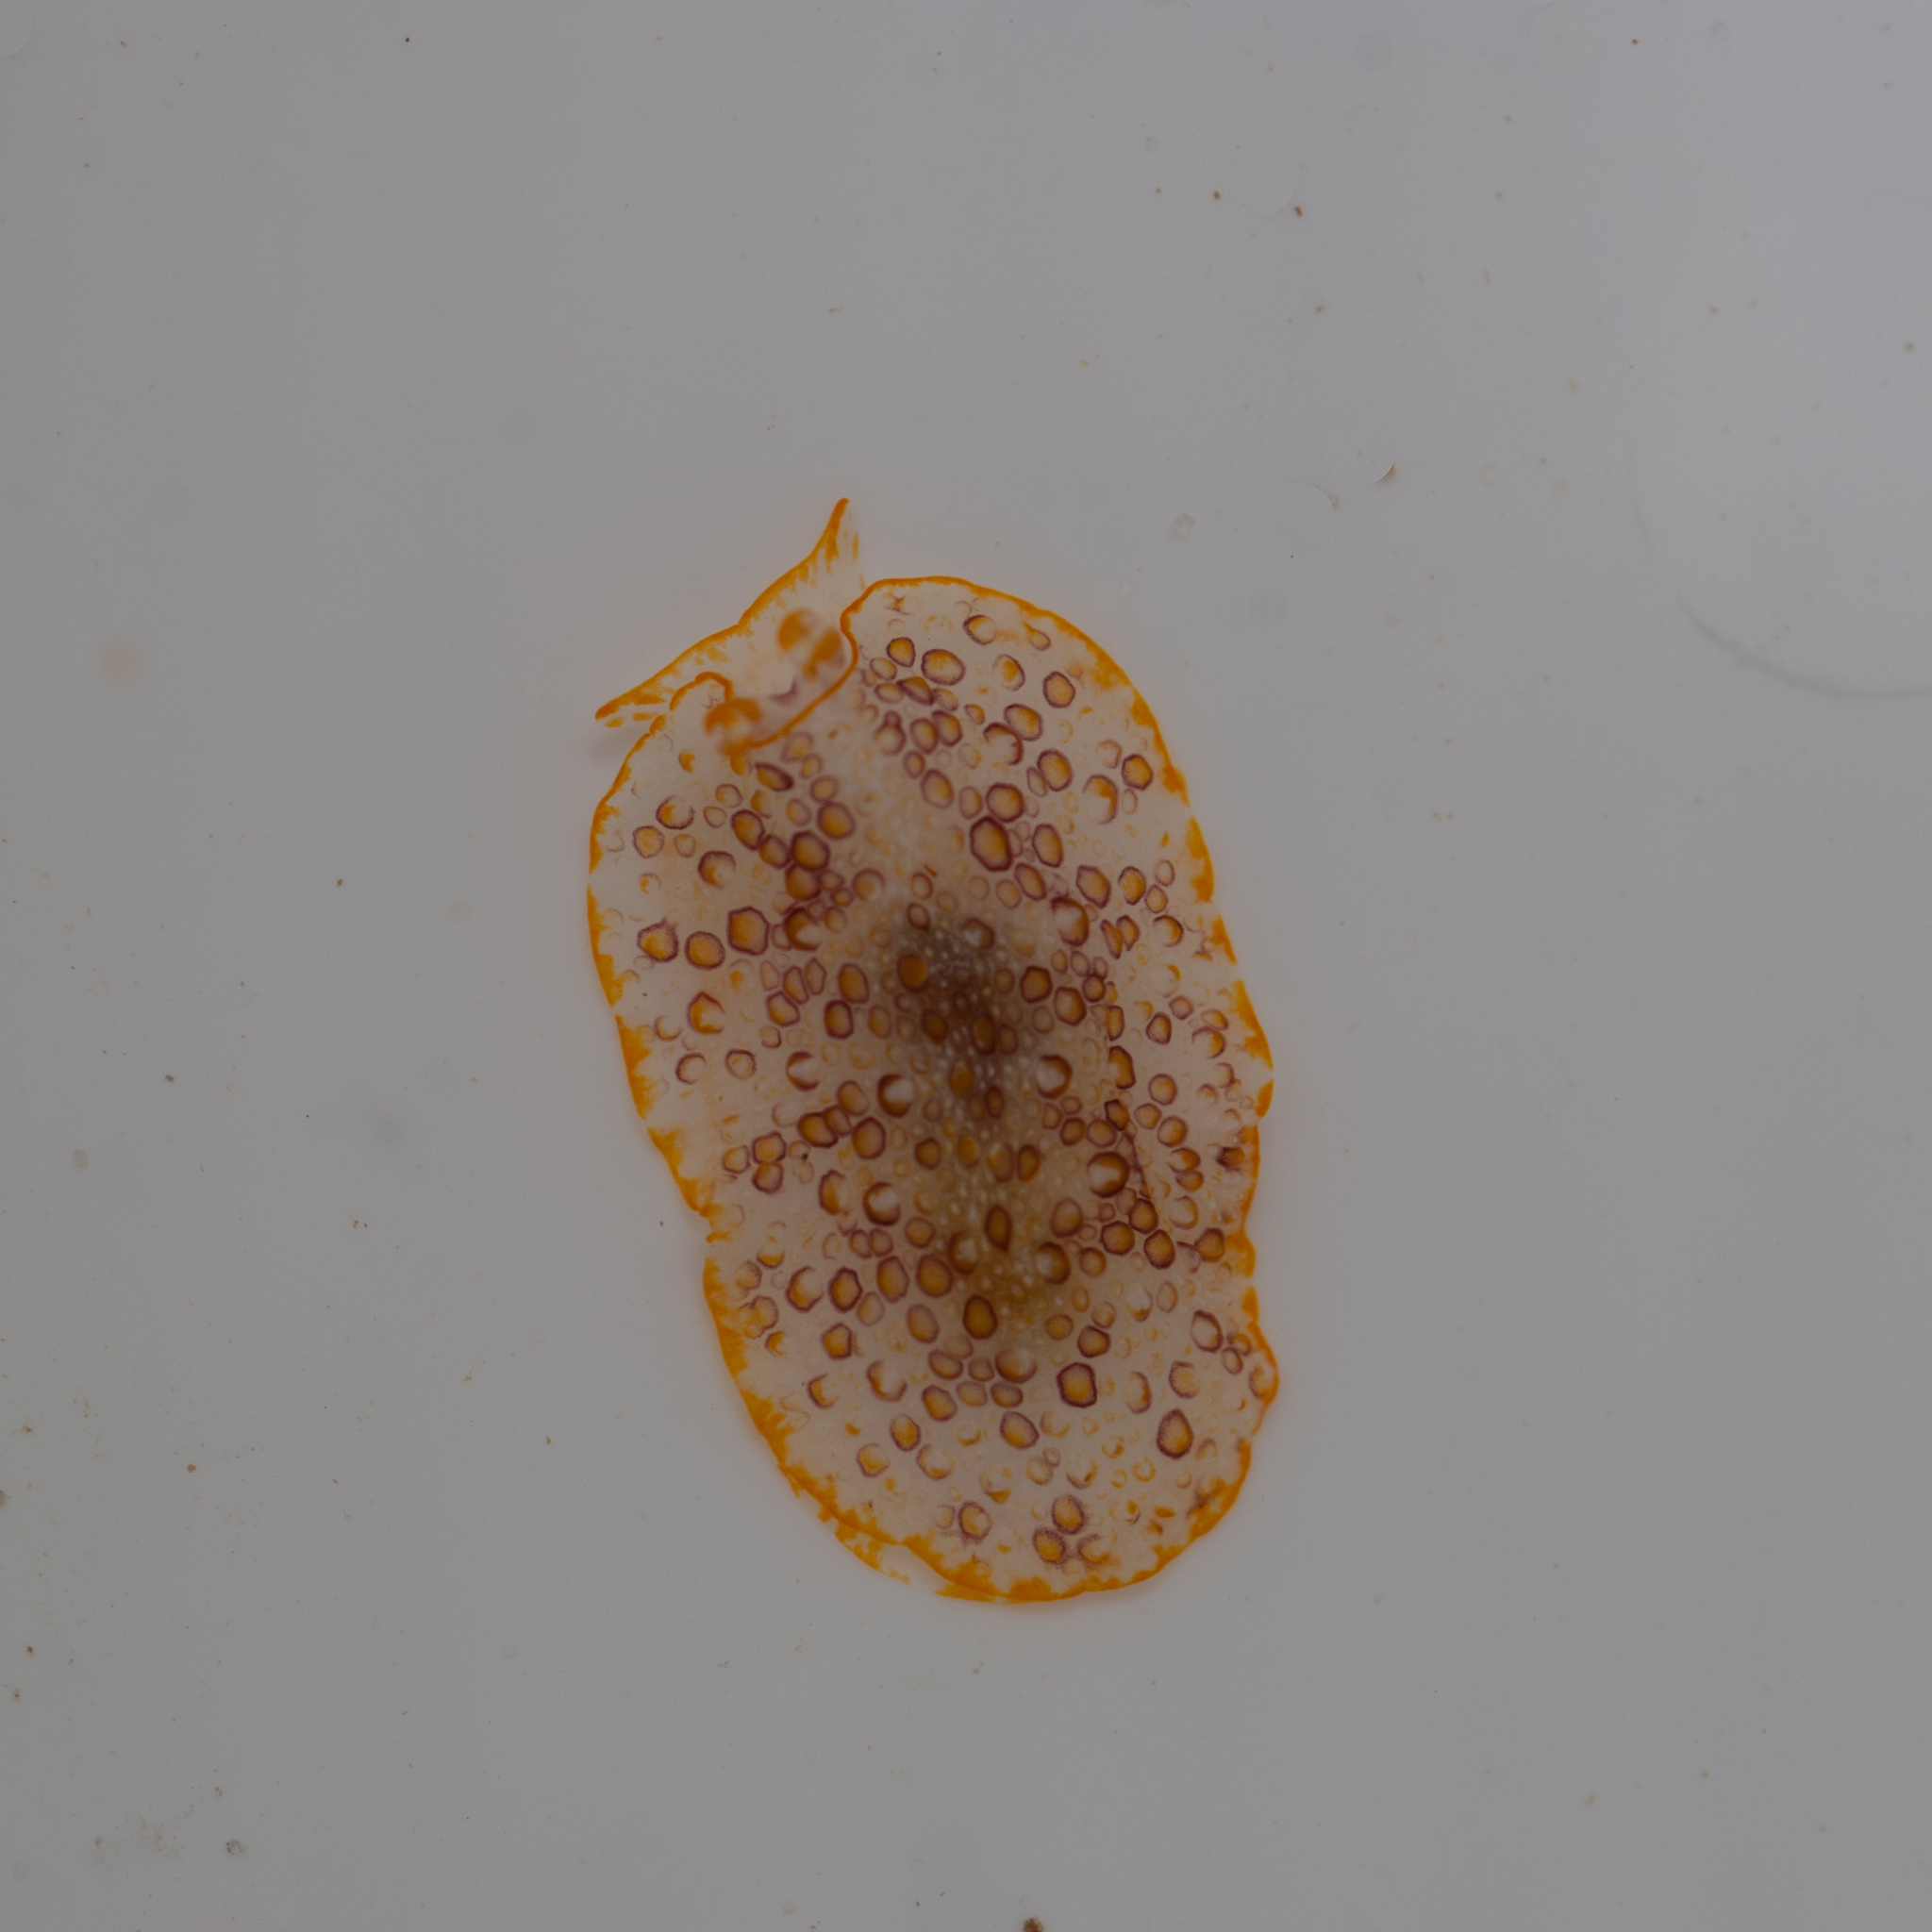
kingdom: Animalia
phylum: Mollusca
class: Gastropoda
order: Pleurobranchida
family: Pleurobranchidae
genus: Pleurobranchus
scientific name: Pleurobranchus areolatus
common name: Atlantic sidegill slug
